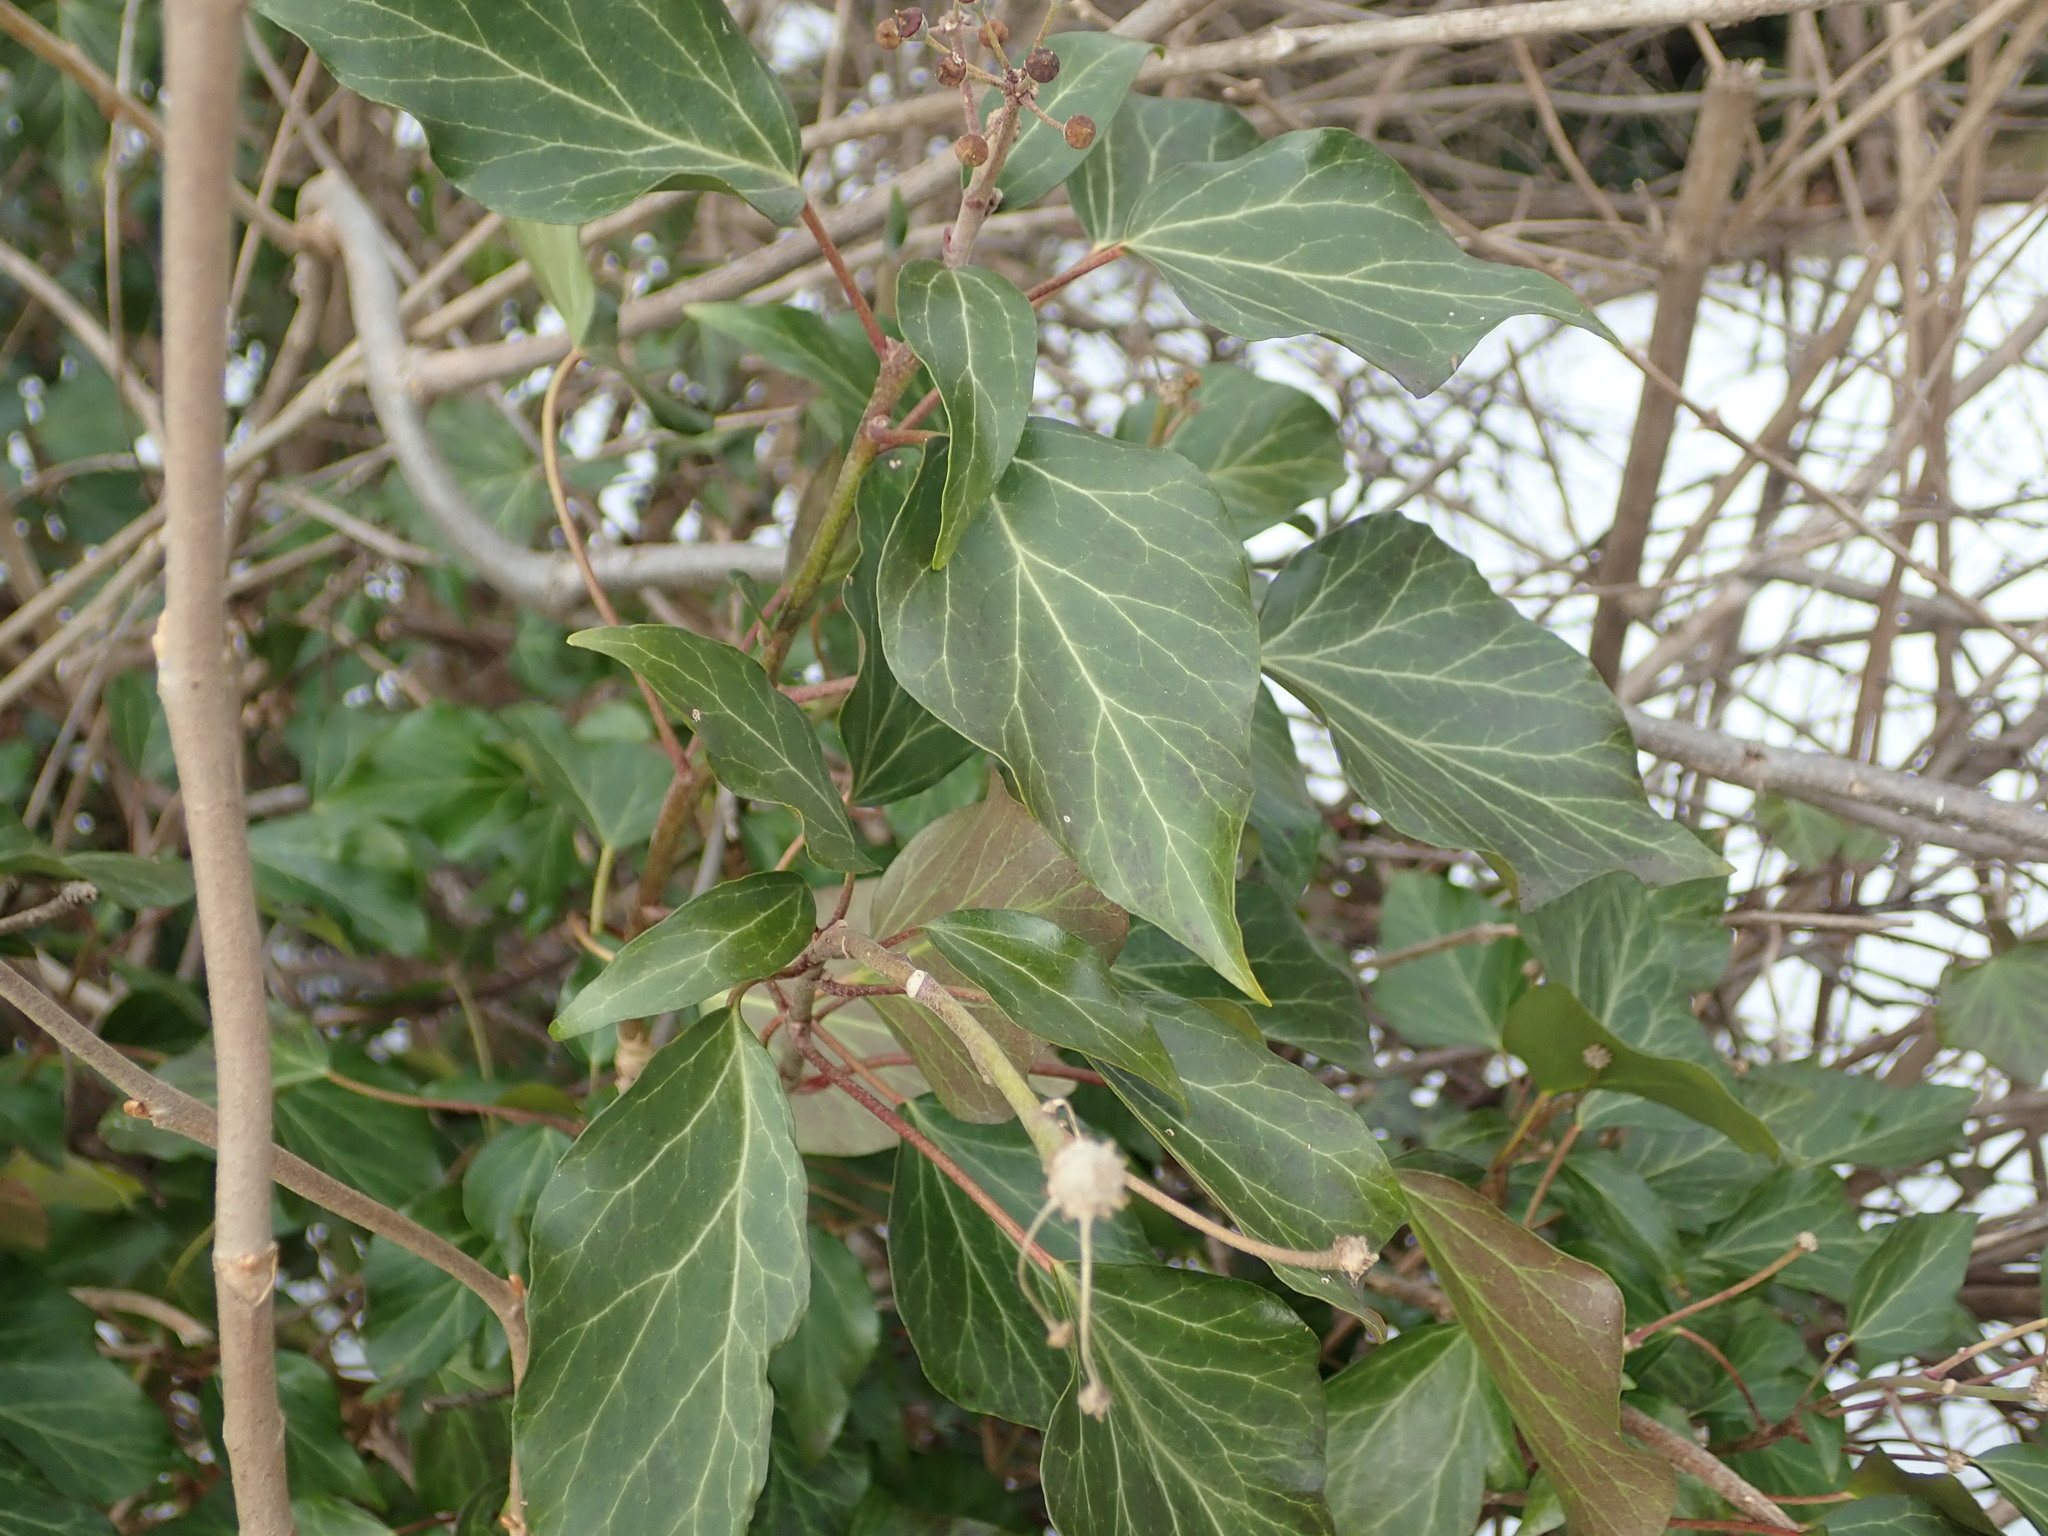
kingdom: Plantae
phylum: Tracheophyta
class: Magnoliopsida
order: Apiales
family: Araliaceae
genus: Hedera
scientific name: Hedera helix
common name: Ivy
